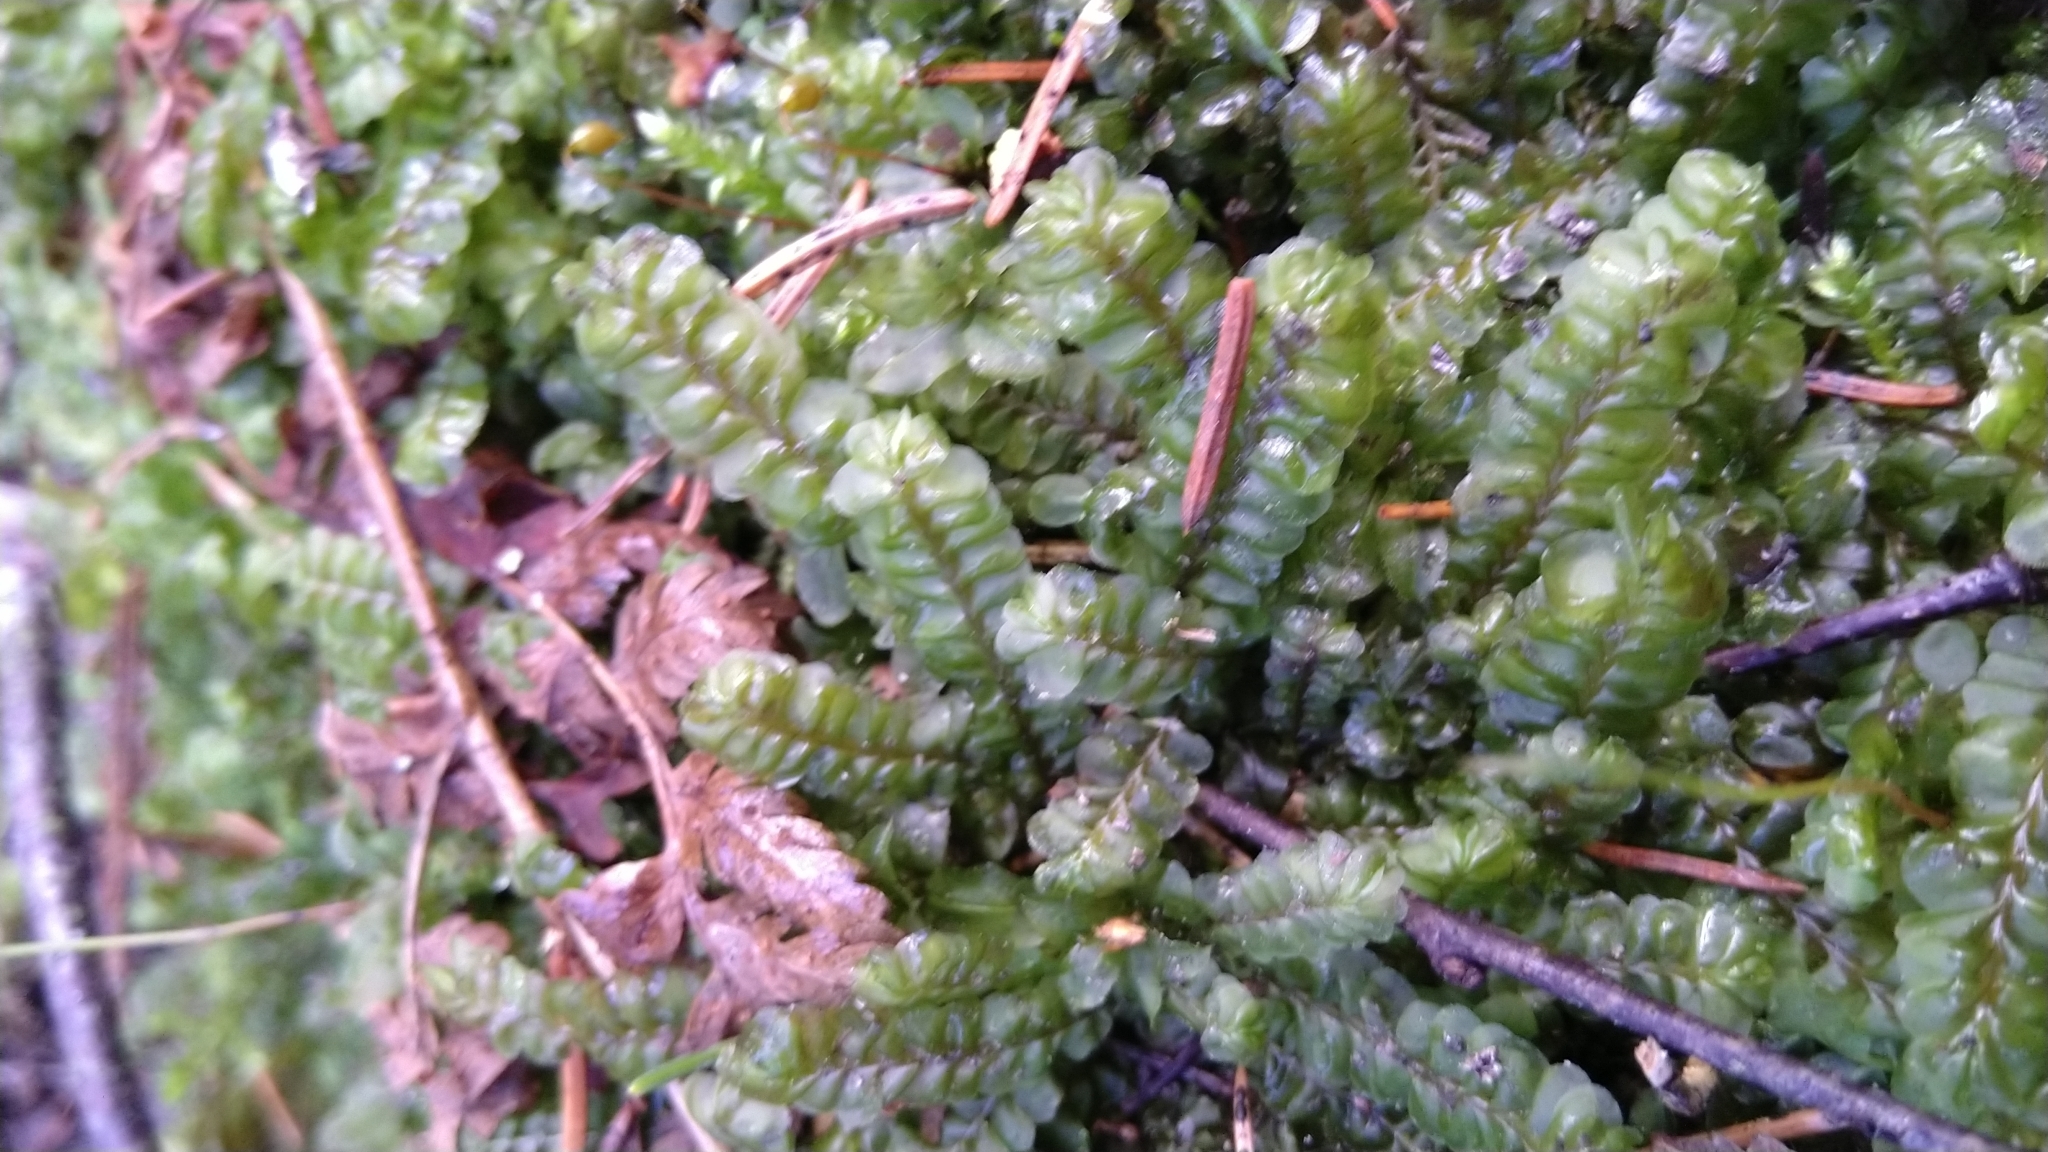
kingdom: Plantae
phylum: Marchantiophyta
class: Jungermanniopsida
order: Jungermanniales
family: Plagiochilaceae
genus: Plagiochila
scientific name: Plagiochila asplenioides
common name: Greater featherwort
